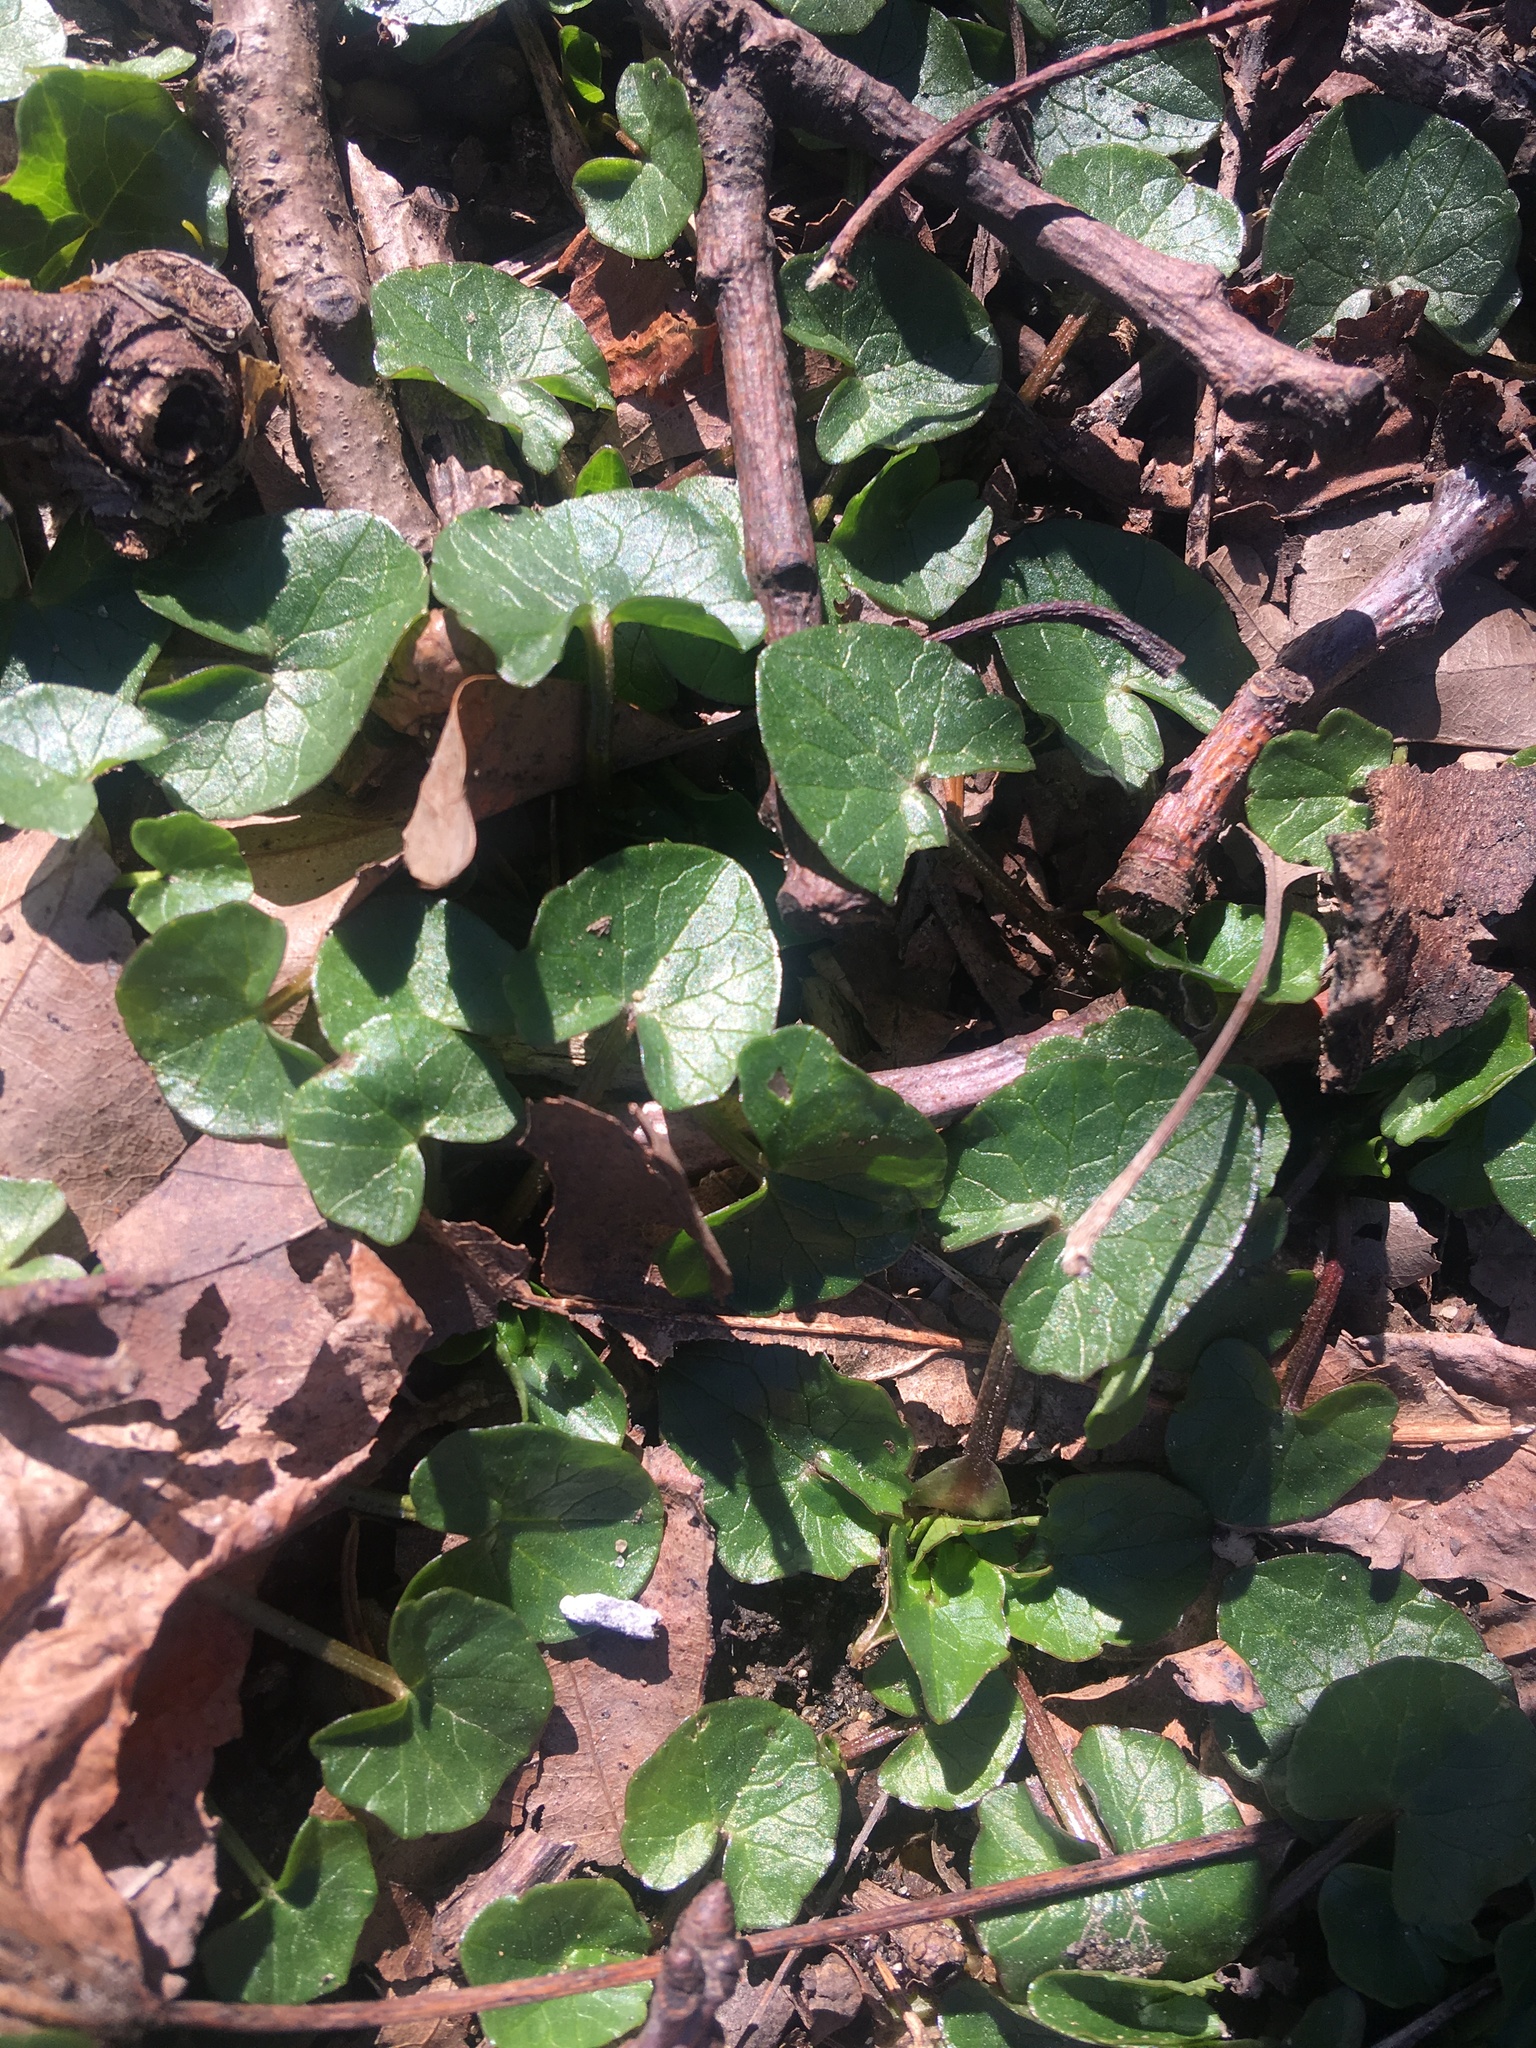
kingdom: Plantae
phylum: Tracheophyta
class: Magnoliopsida
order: Ranunculales
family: Ranunculaceae
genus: Ficaria
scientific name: Ficaria verna
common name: Lesser celandine
